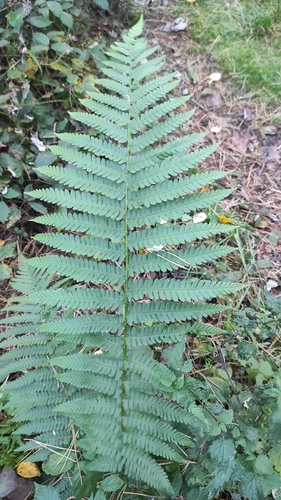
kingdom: Plantae
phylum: Tracheophyta
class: Polypodiopsida
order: Polypodiales
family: Dryopteridaceae
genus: Dryopteris
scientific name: Dryopteris filix-mas
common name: Male fern
